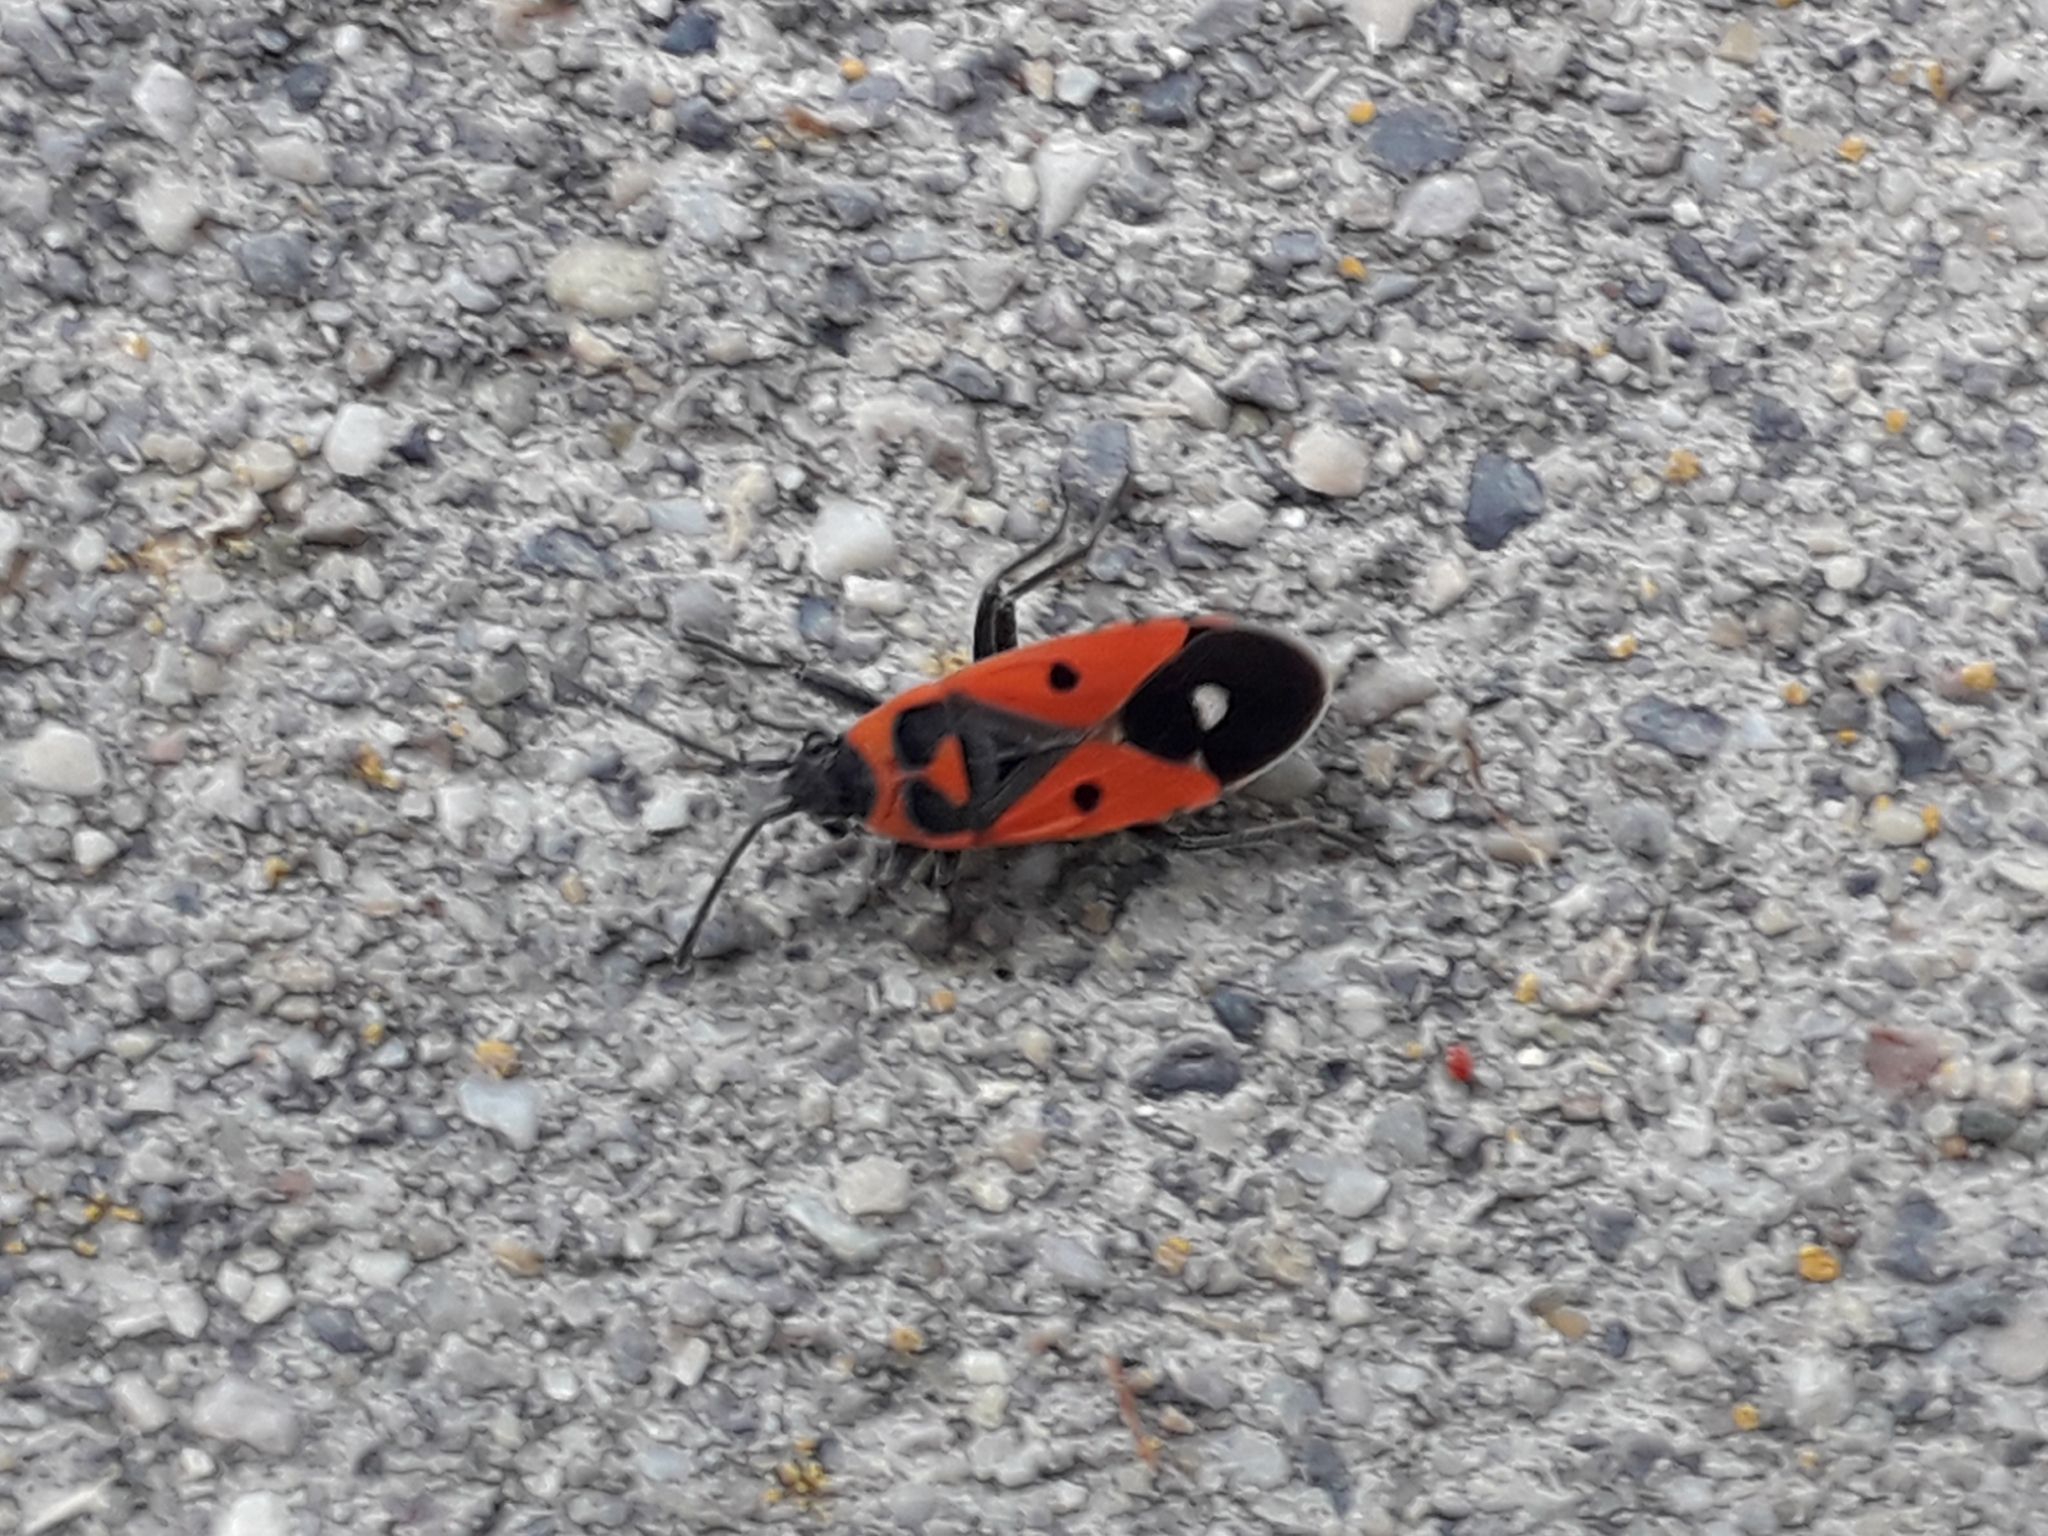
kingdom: Animalia
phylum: Arthropoda
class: Insecta
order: Hemiptera
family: Lygaeidae
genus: Melanocoryphus
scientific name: Melanocoryphus albomaculatus
